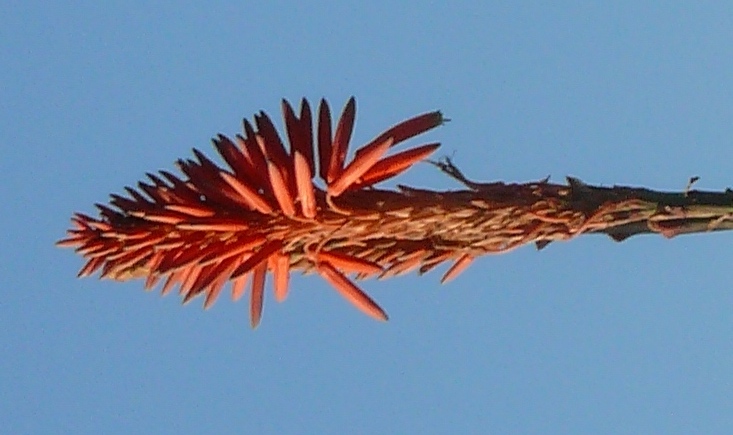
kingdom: Plantae
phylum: Tracheophyta
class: Liliopsida
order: Asparagales
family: Asphodelaceae
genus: Aloe
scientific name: Aloe arborescens
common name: Candelabra aloe
